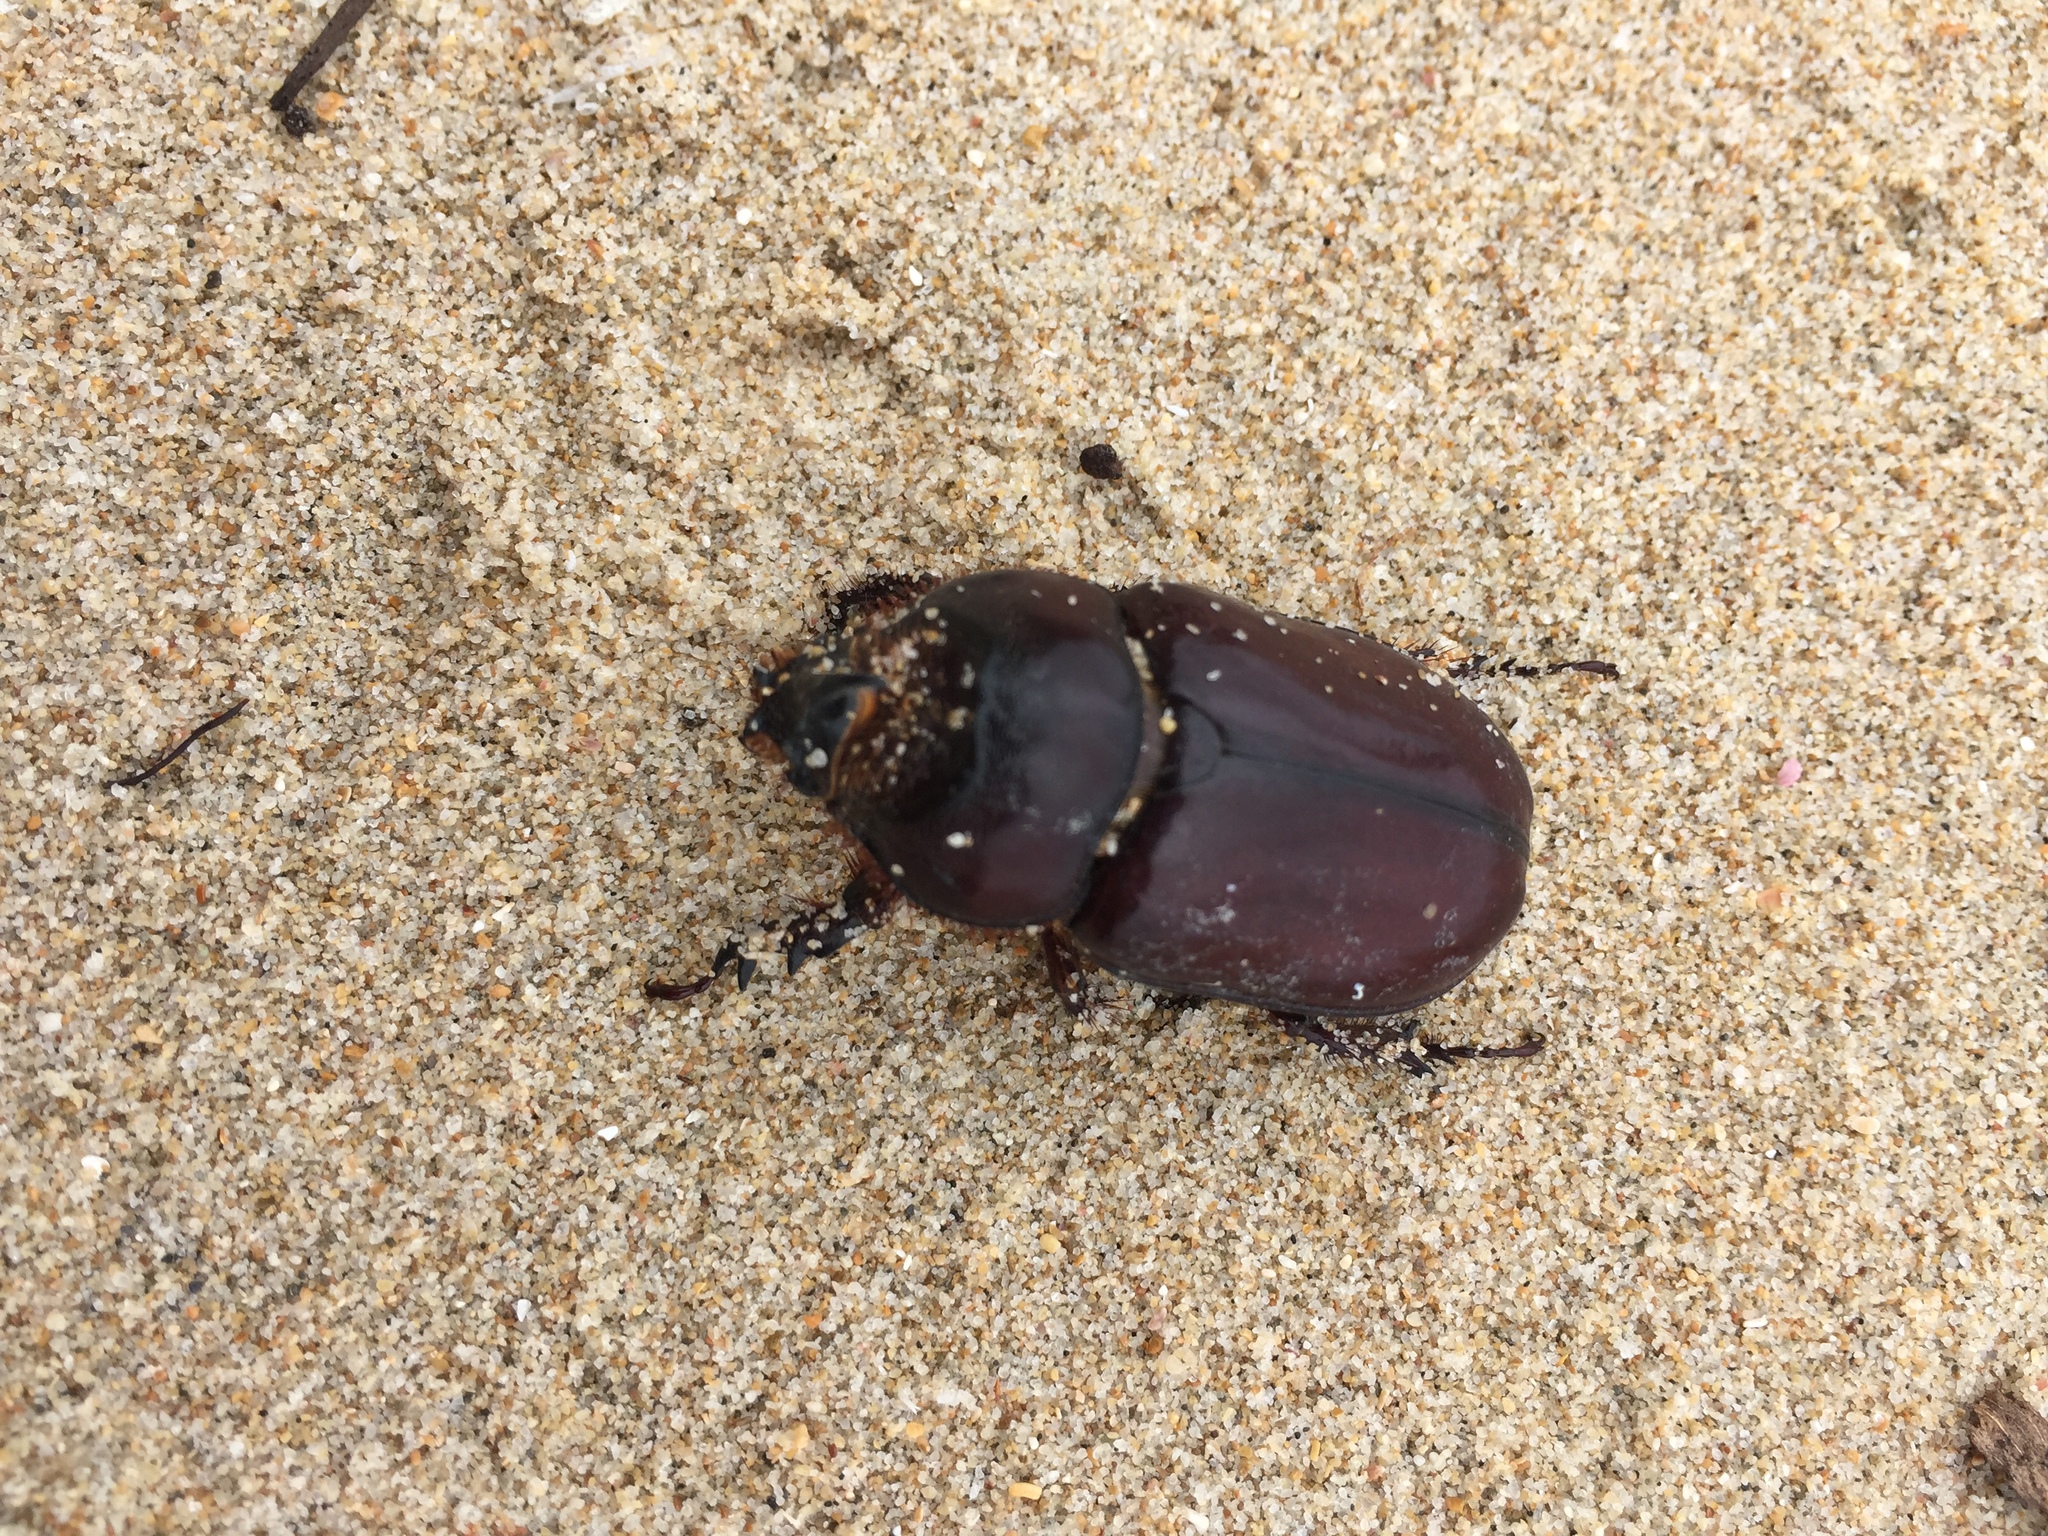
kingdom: Animalia
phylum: Arthropoda
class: Insecta
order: Coleoptera
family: Scarabaeidae
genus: Oryctes
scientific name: Oryctes boas
